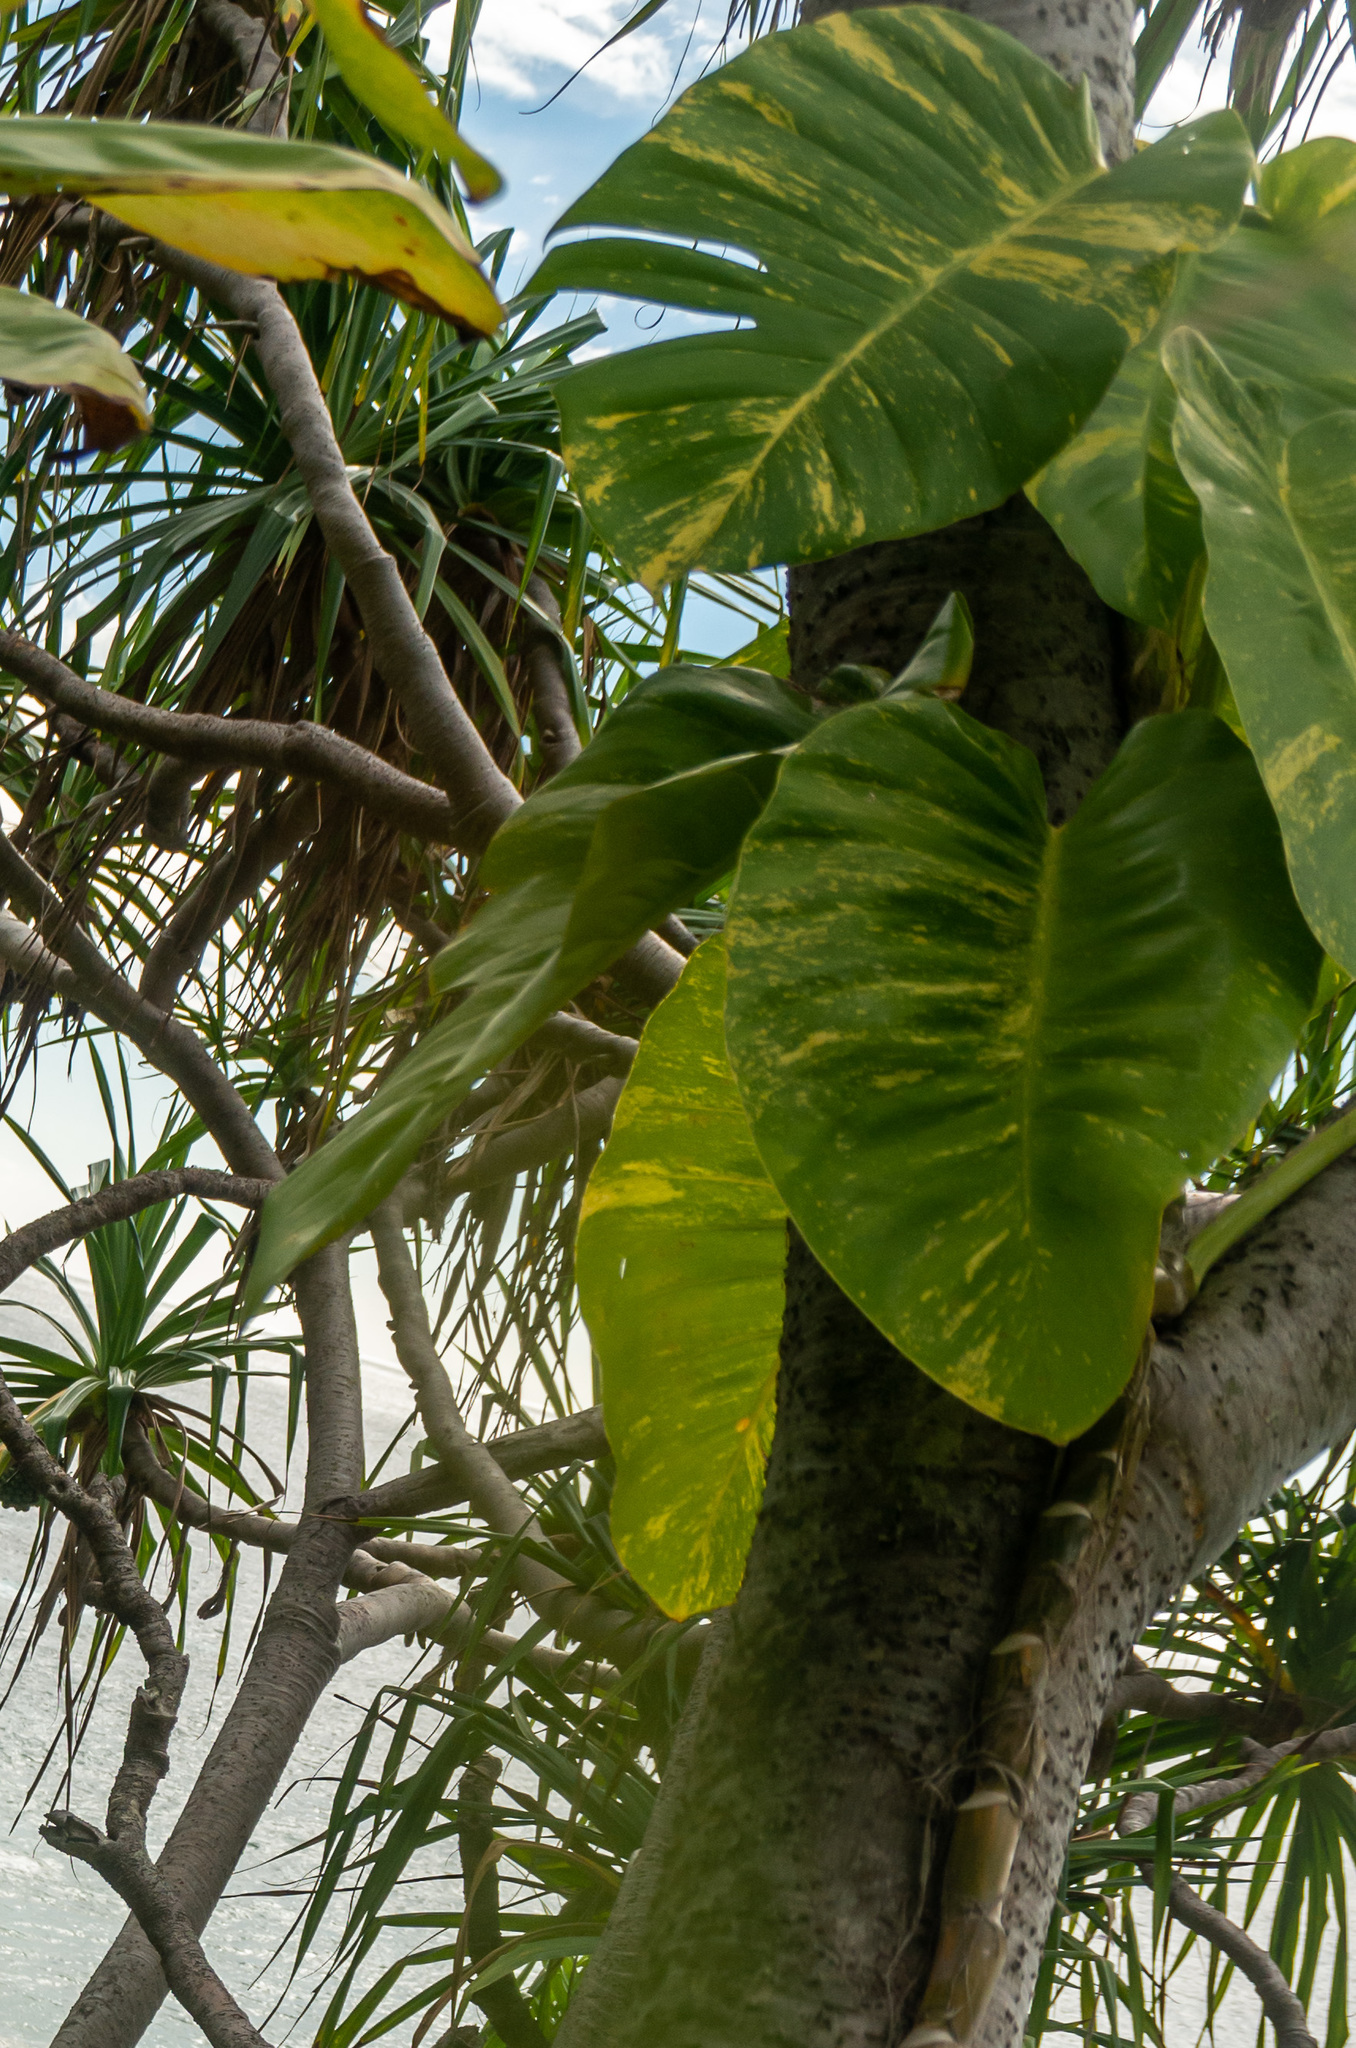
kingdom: Plantae
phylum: Tracheophyta
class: Liliopsida
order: Alismatales
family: Araceae
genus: Epipremnum
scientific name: Epipremnum aureum
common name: Golden hunter's-robe
